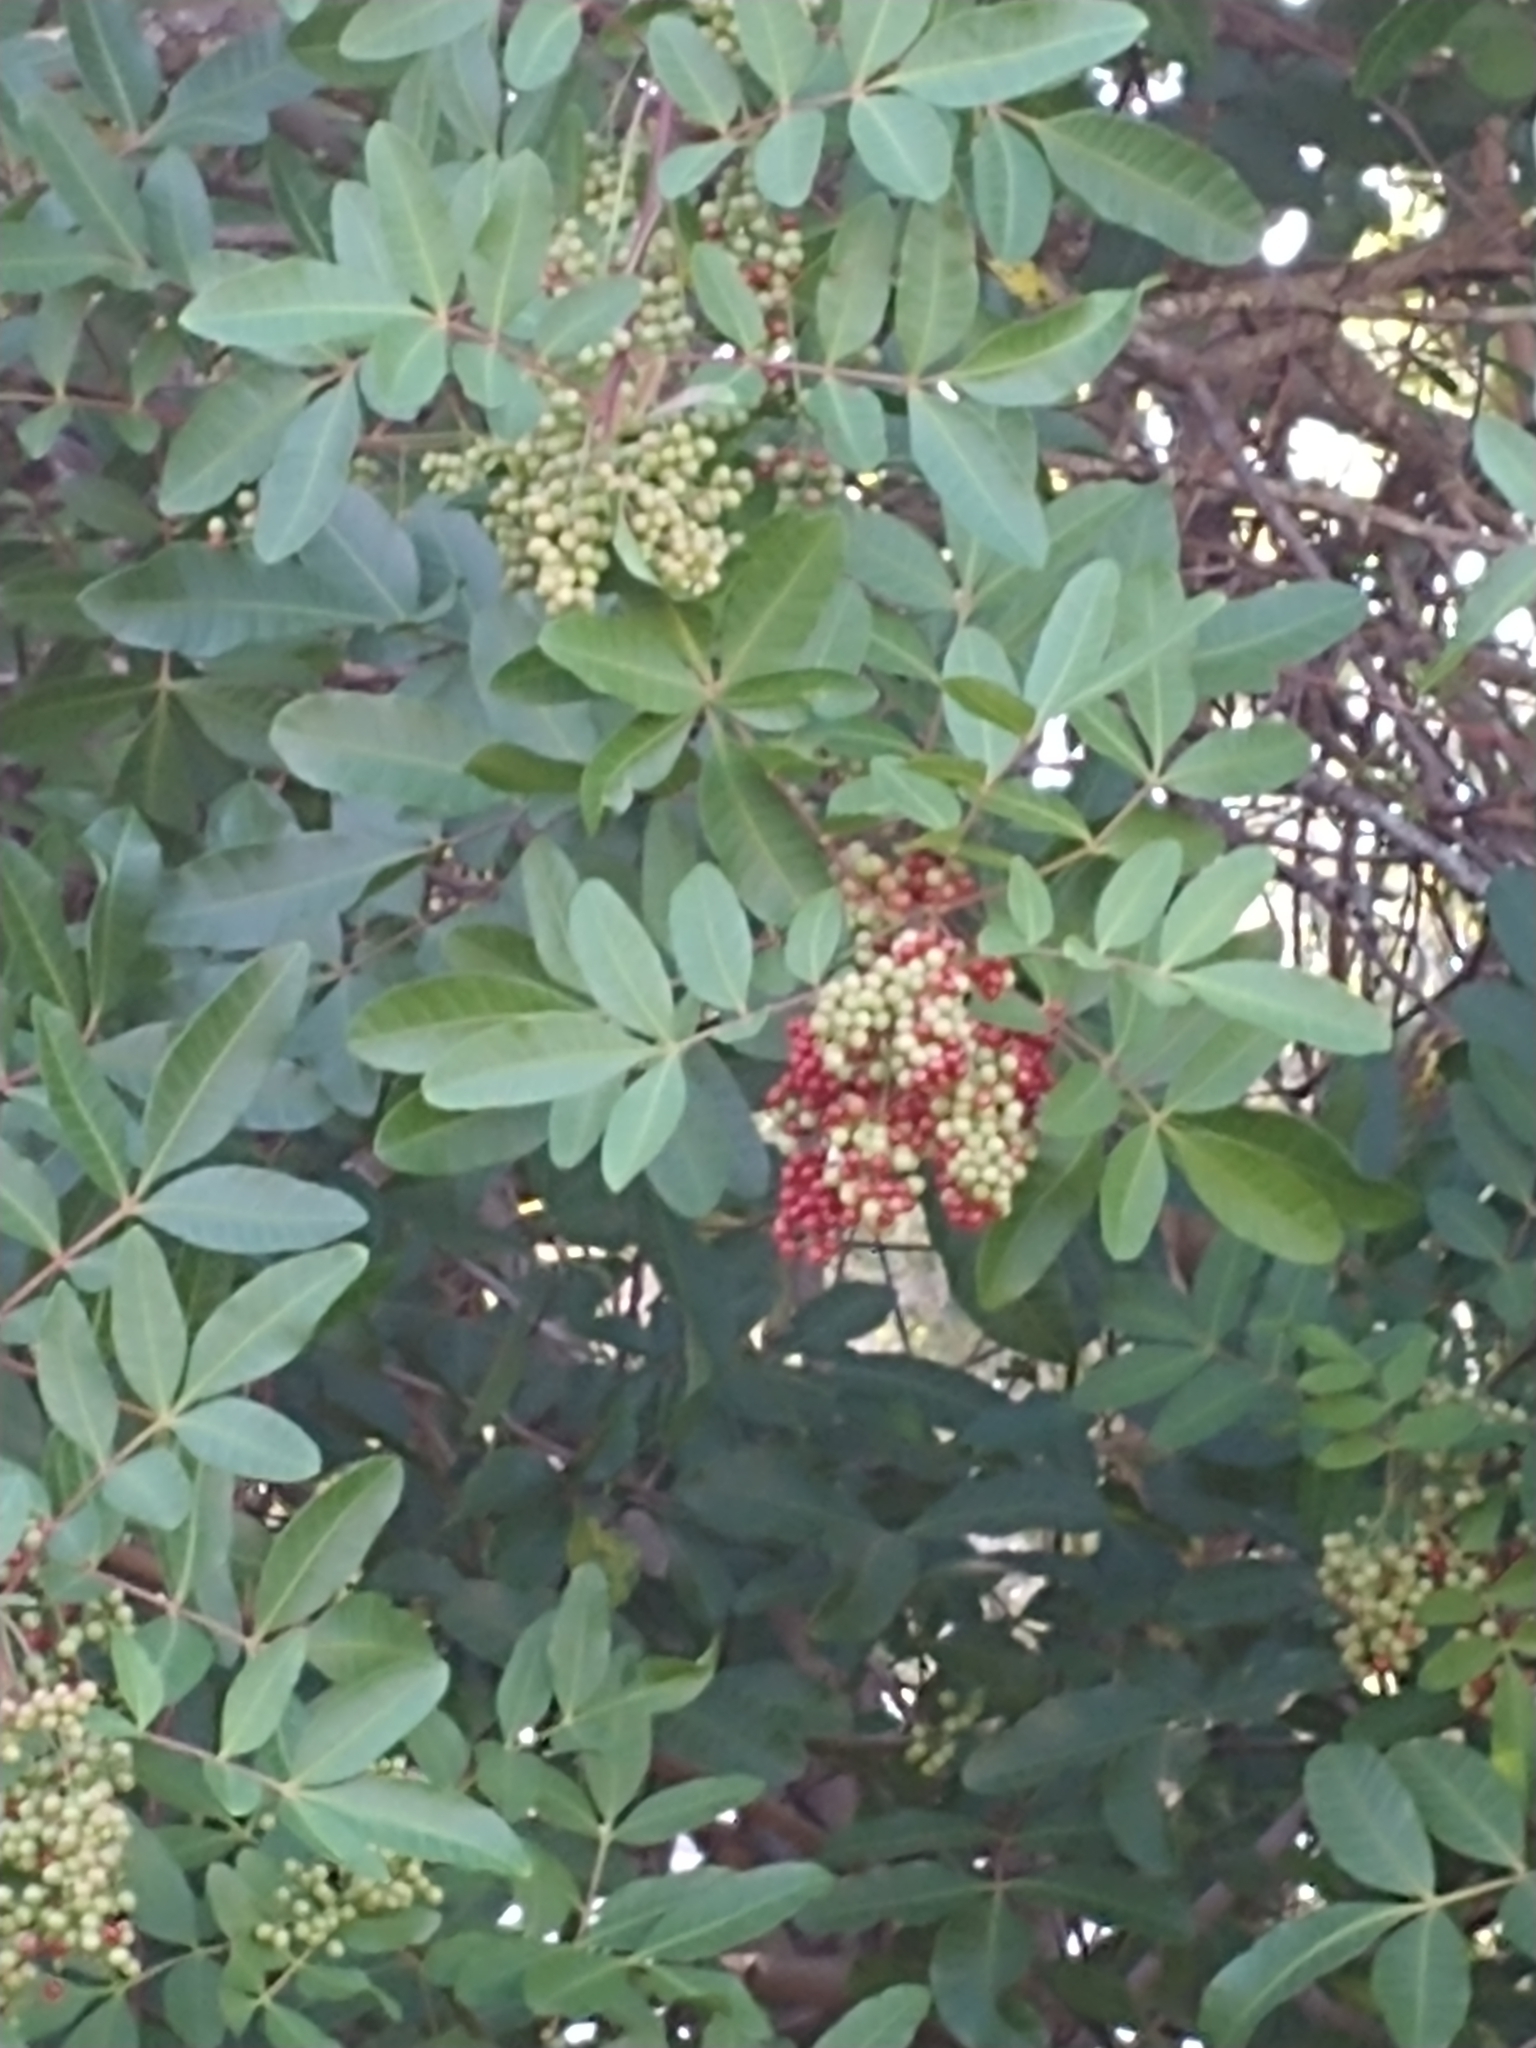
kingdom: Plantae
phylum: Tracheophyta
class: Magnoliopsida
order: Sapindales
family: Anacardiaceae
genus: Schinus
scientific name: Schinus terebinthifolia
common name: Brazilian peppertree
